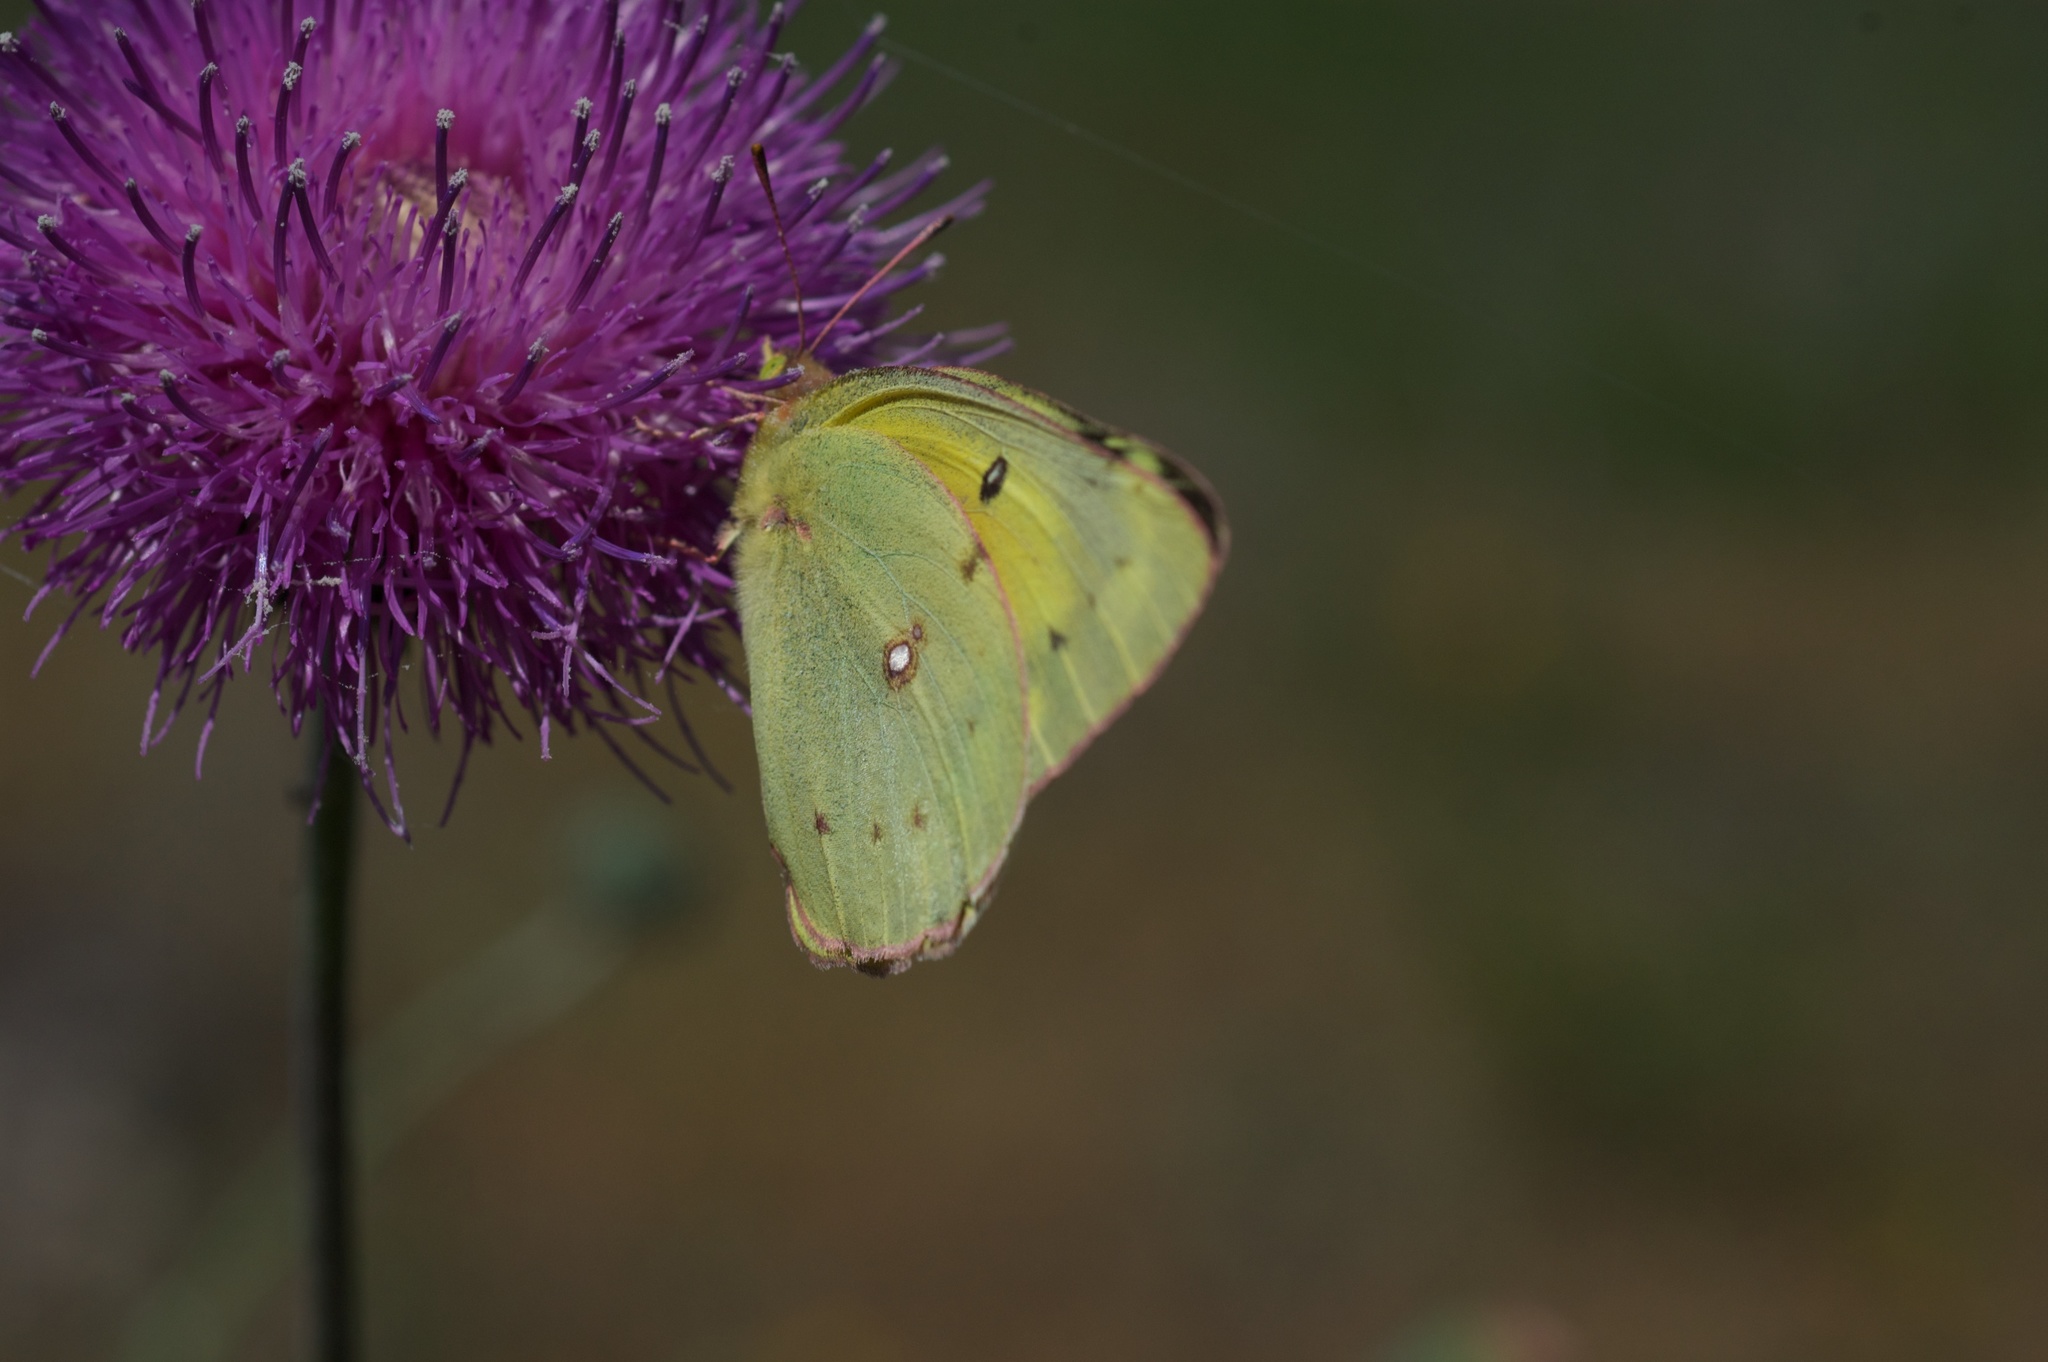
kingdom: Animalia
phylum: Arthropoda
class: Insecta
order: Lepidoptera
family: Pieridae
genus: Colias
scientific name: Colias eurytheme
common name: Alfalfa butterfly
